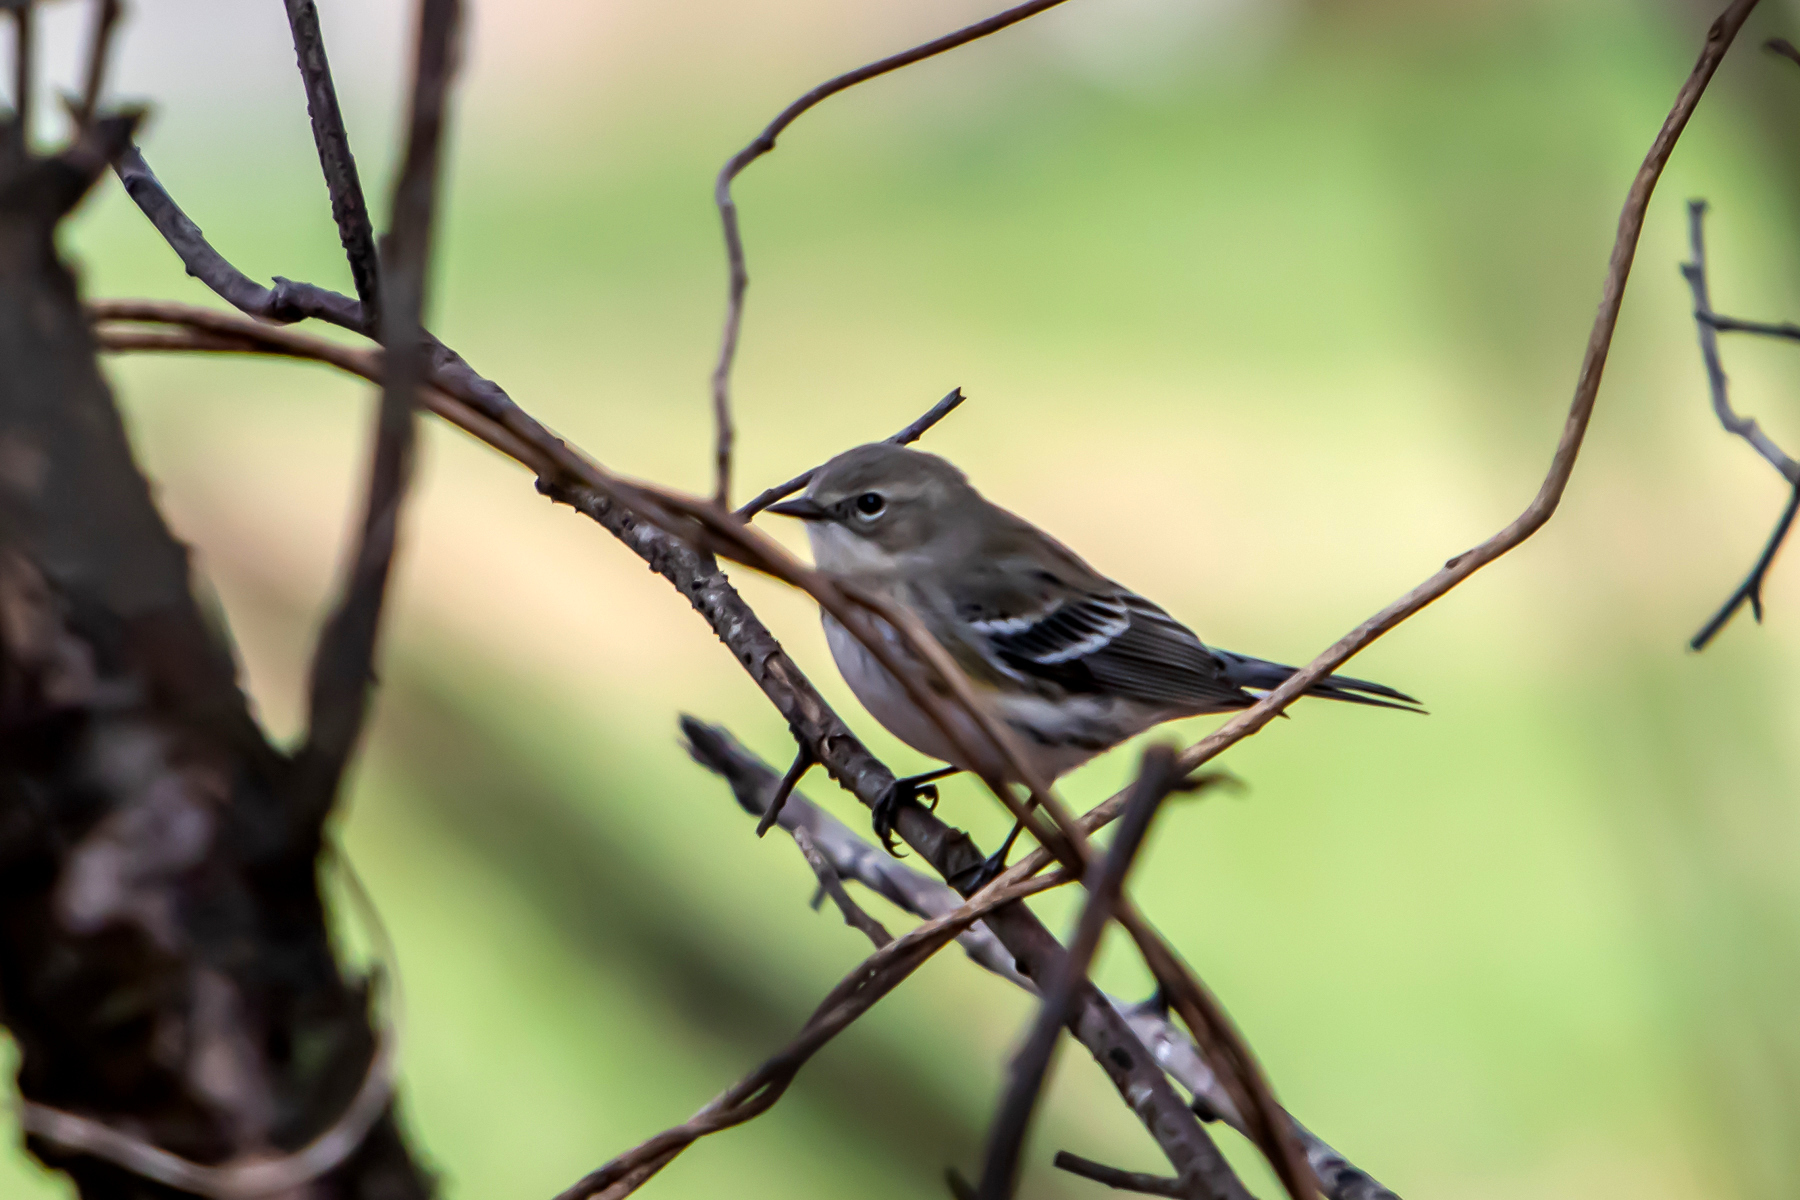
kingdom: Animalia
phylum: Chordata
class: Aves
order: Passeriformes
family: Parulidae
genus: Setophaga
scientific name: Setophaga coronata
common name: Myrtle warbler
